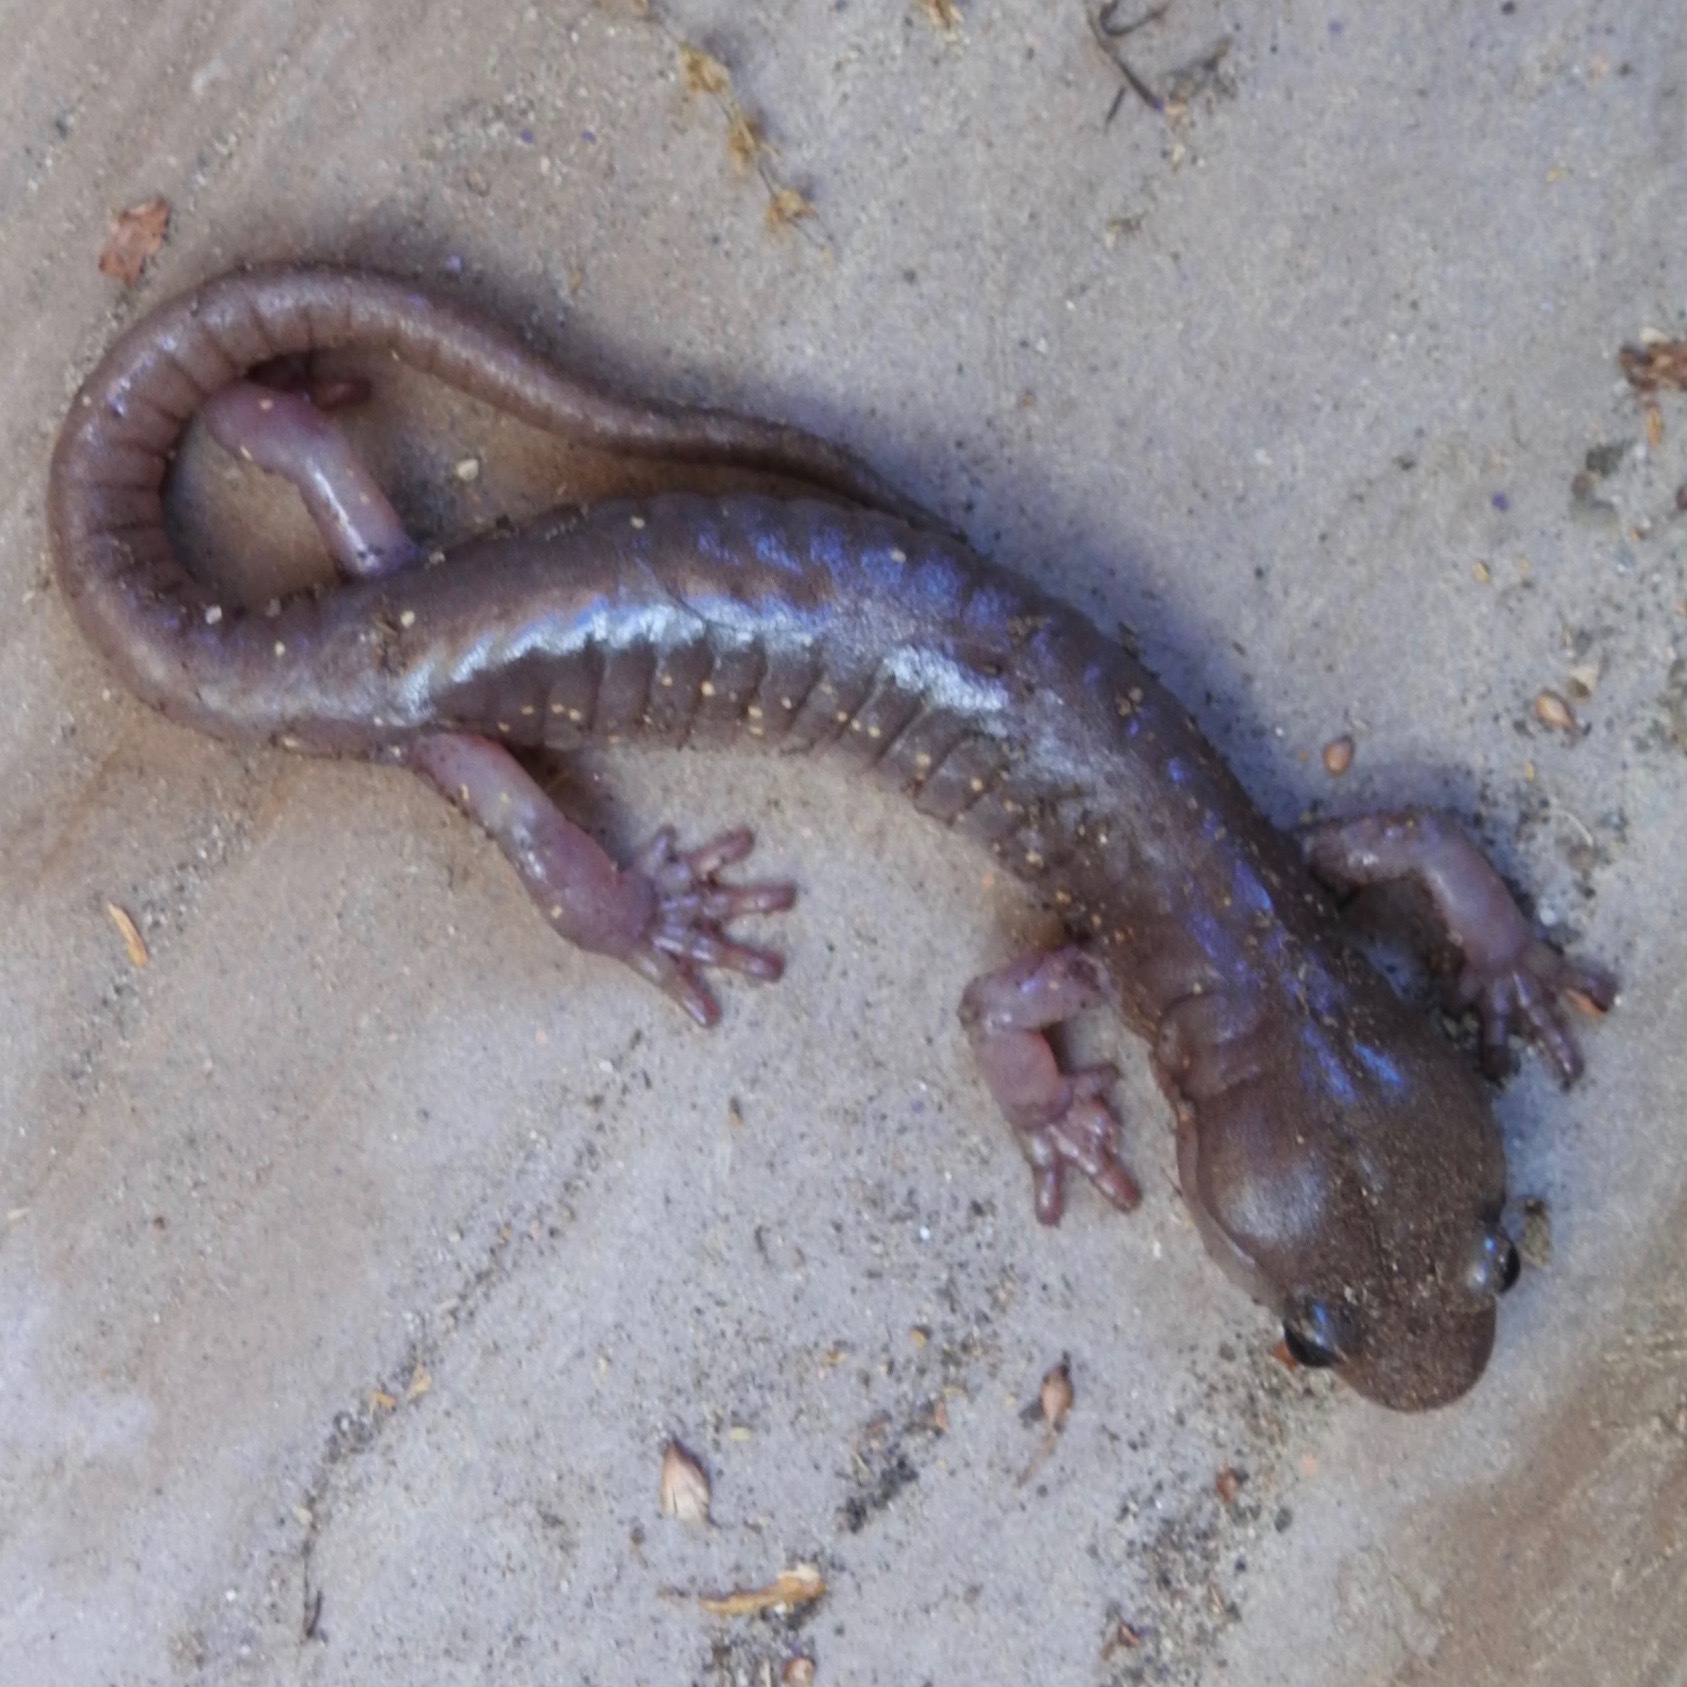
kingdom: Animalia
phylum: Chordata
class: Amphibia
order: Caudata
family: Plethodontidae
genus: Aneides
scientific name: Aneides lugubris
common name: Arboreal salamander
